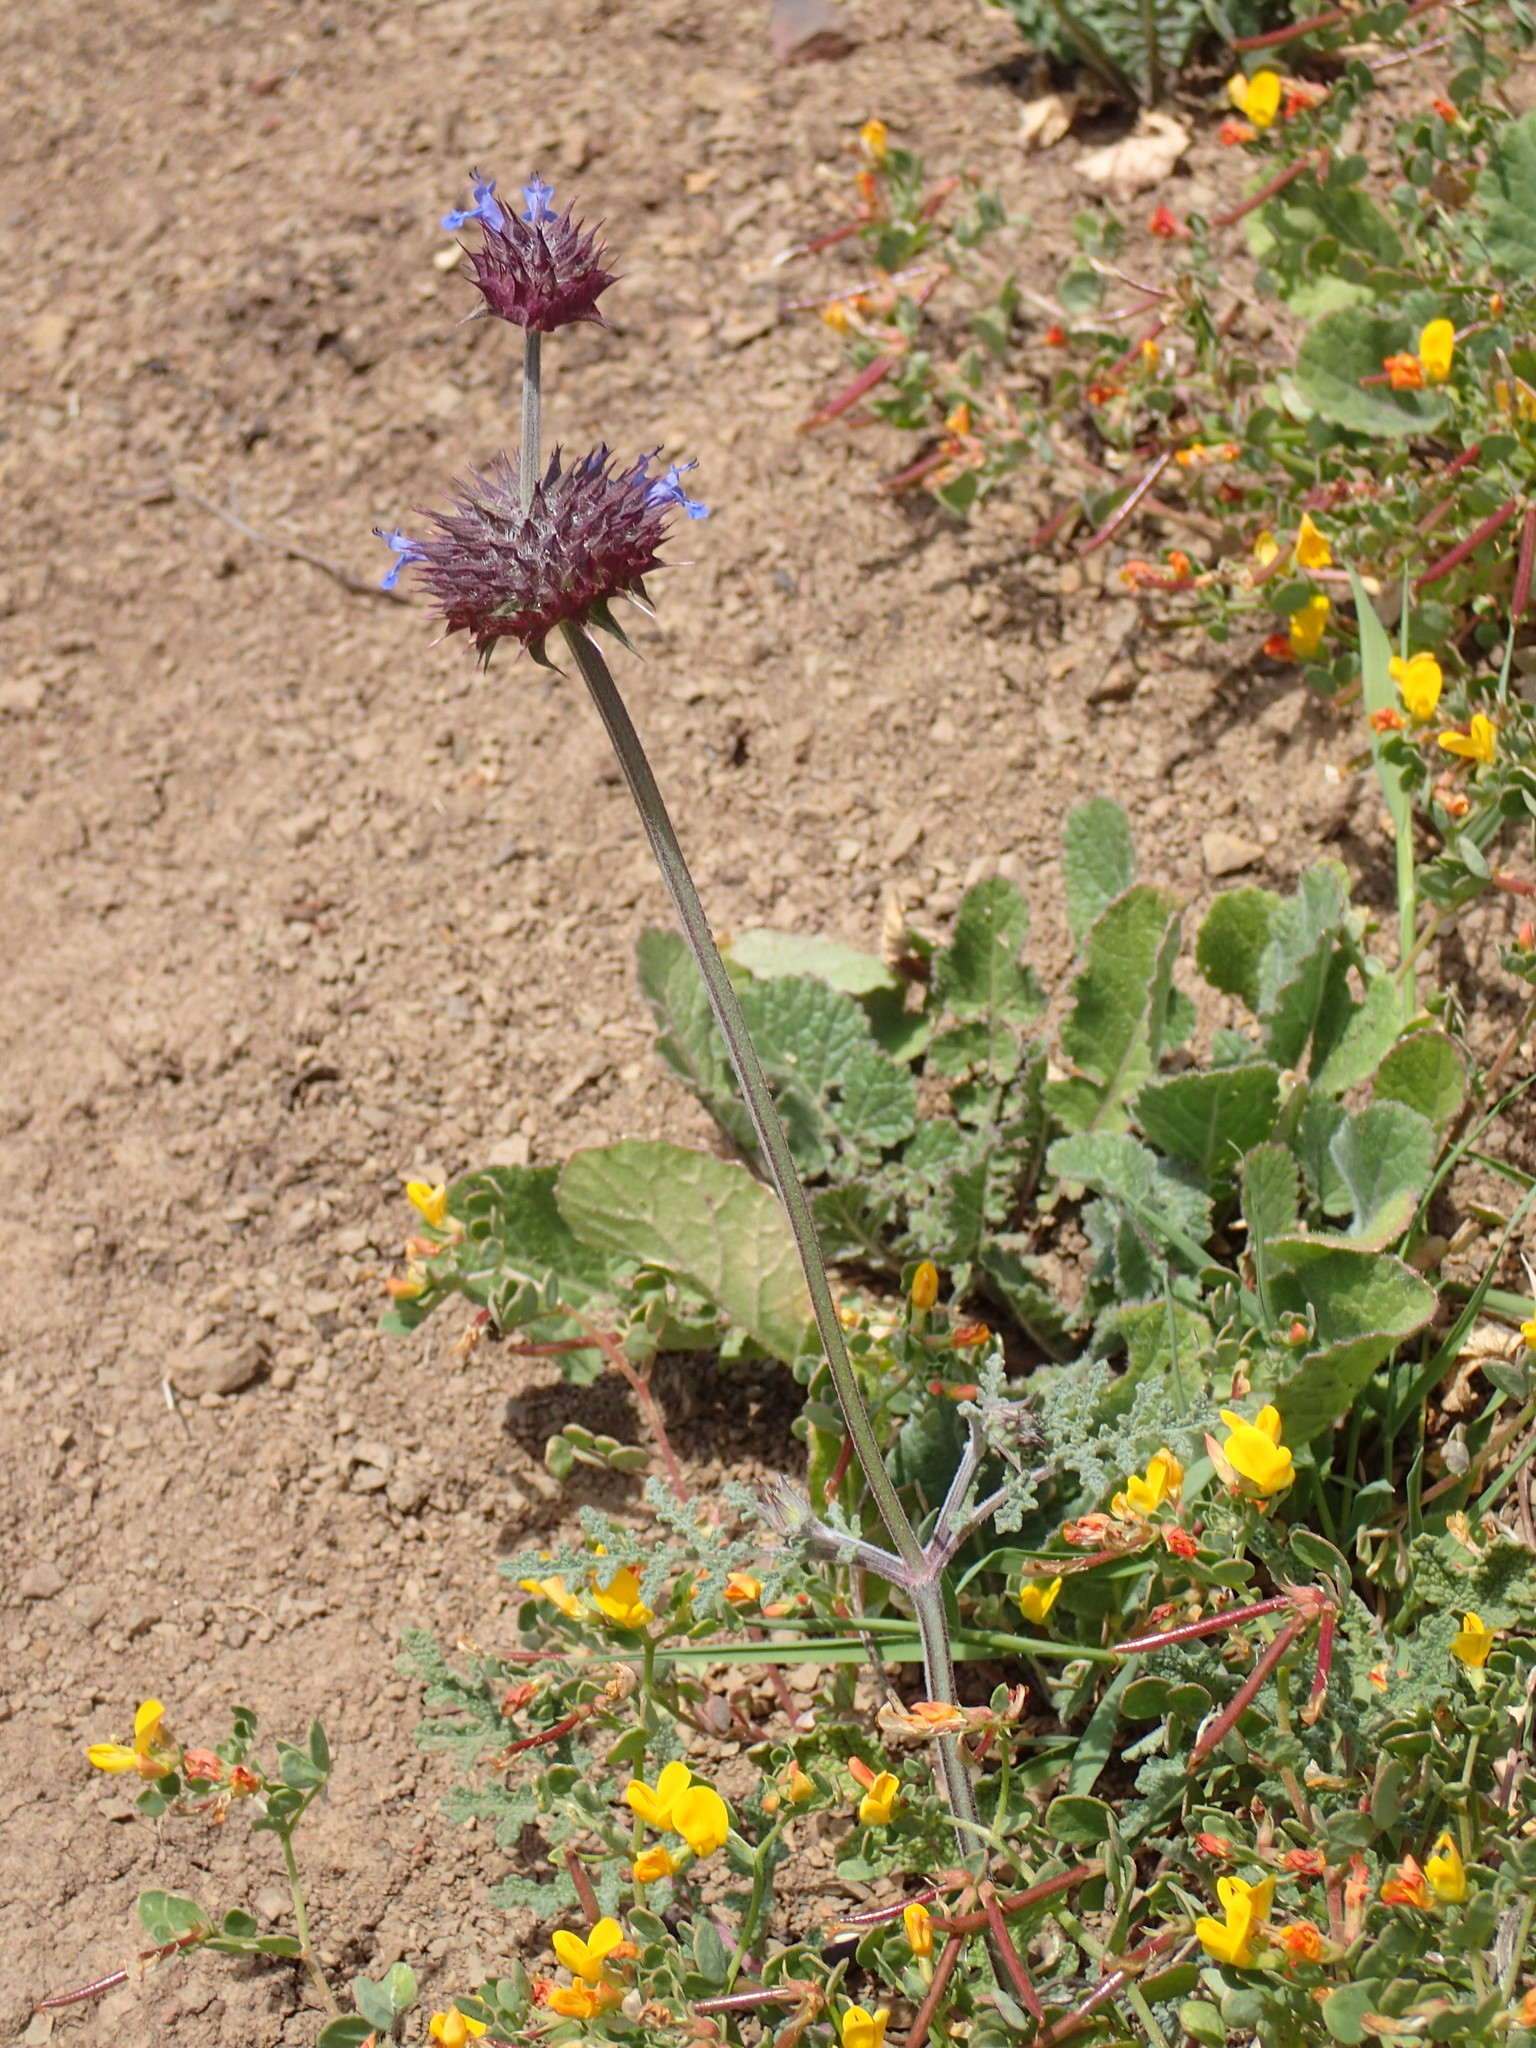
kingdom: Plantae
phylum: Tracheophyta
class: Magnoliopsida
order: Lamiales
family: Lamiaceae
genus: Salvia
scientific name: Salvia columbariae
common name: Chia
